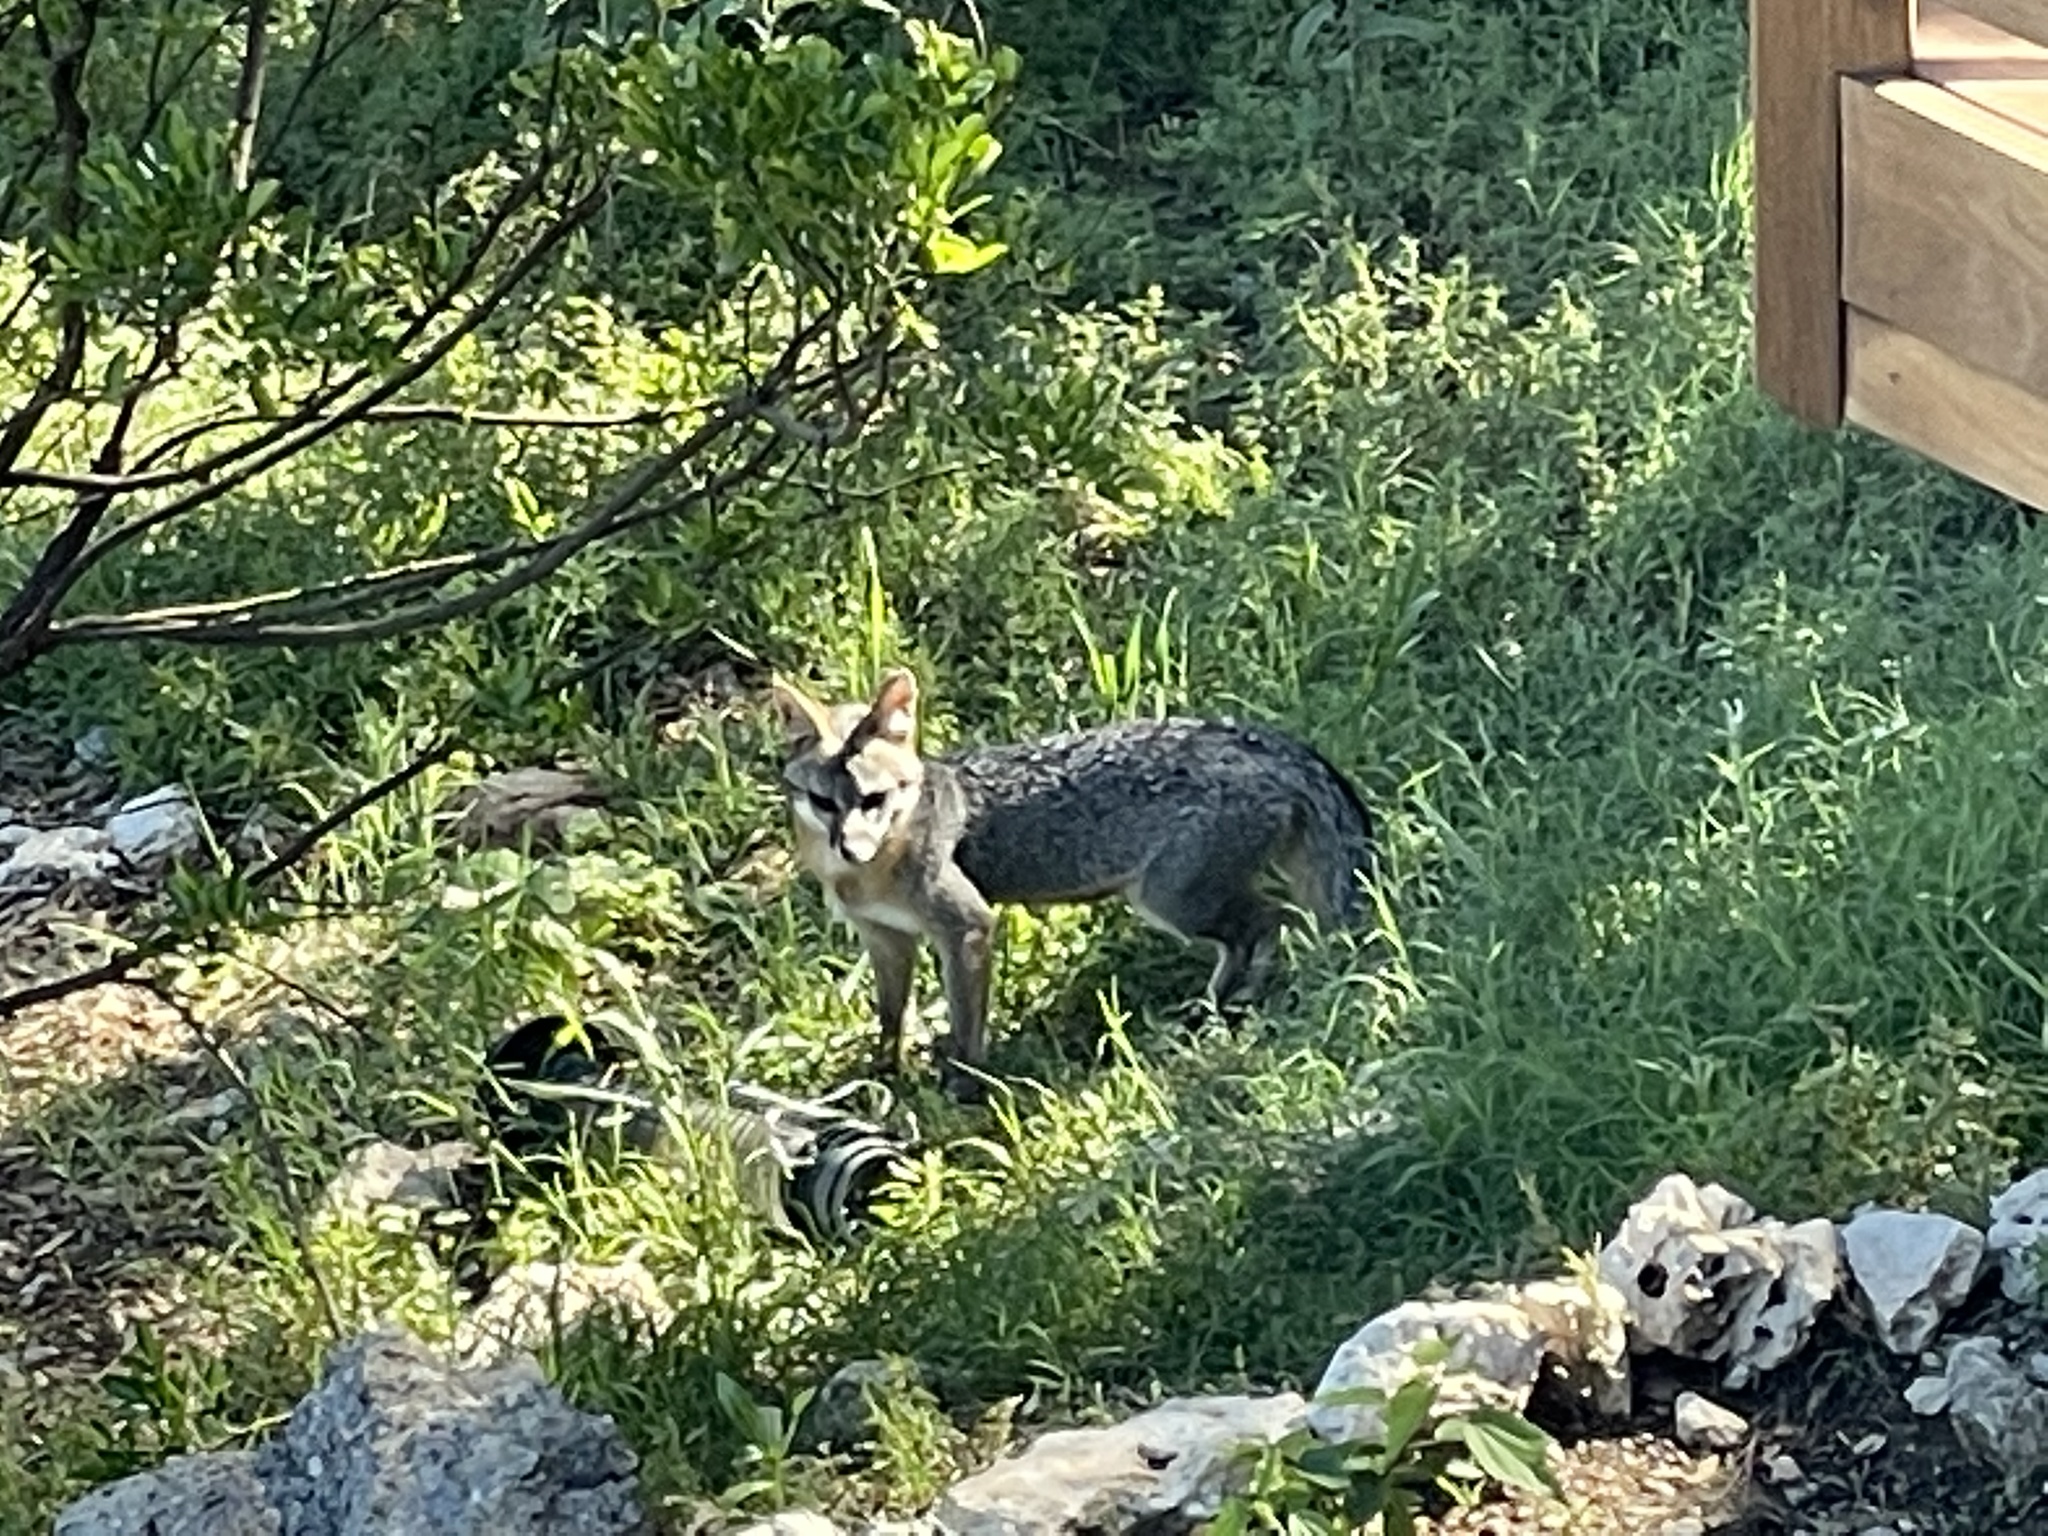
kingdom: Animalia
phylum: Chordata
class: Mammalia
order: Carnivora
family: Canidae
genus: Urocyon
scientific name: Urocyon cinereoargenteus
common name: Gray fox
